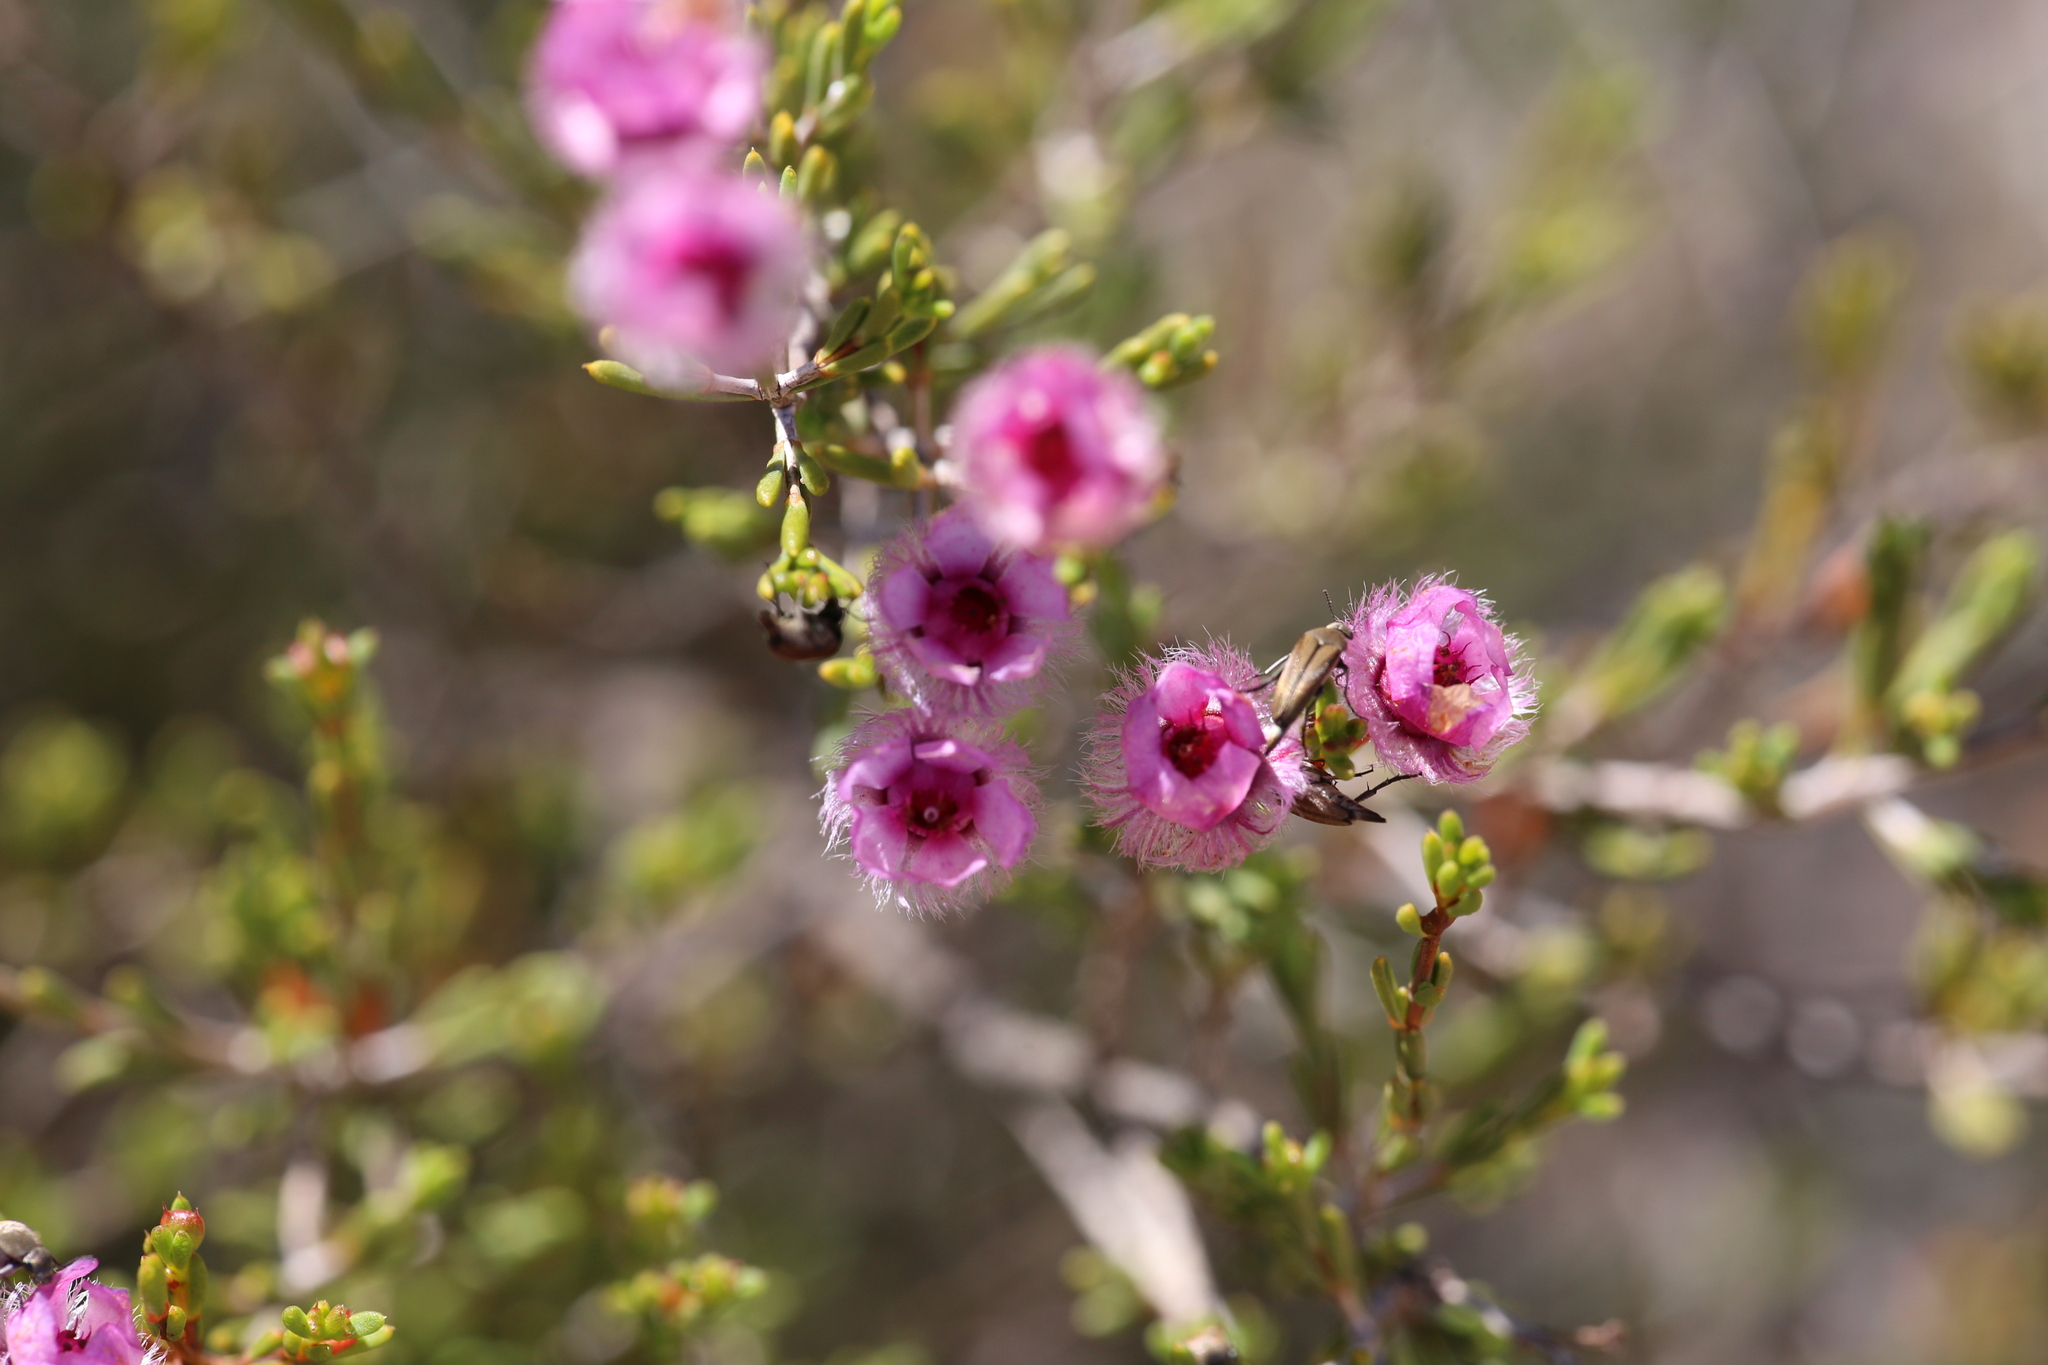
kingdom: Plantae
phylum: Tracheophyta
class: Magnoliopsida
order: Myrtales
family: Myrtaceae
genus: Verticordia
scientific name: Verticordia picta
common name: Painted feather-flower
